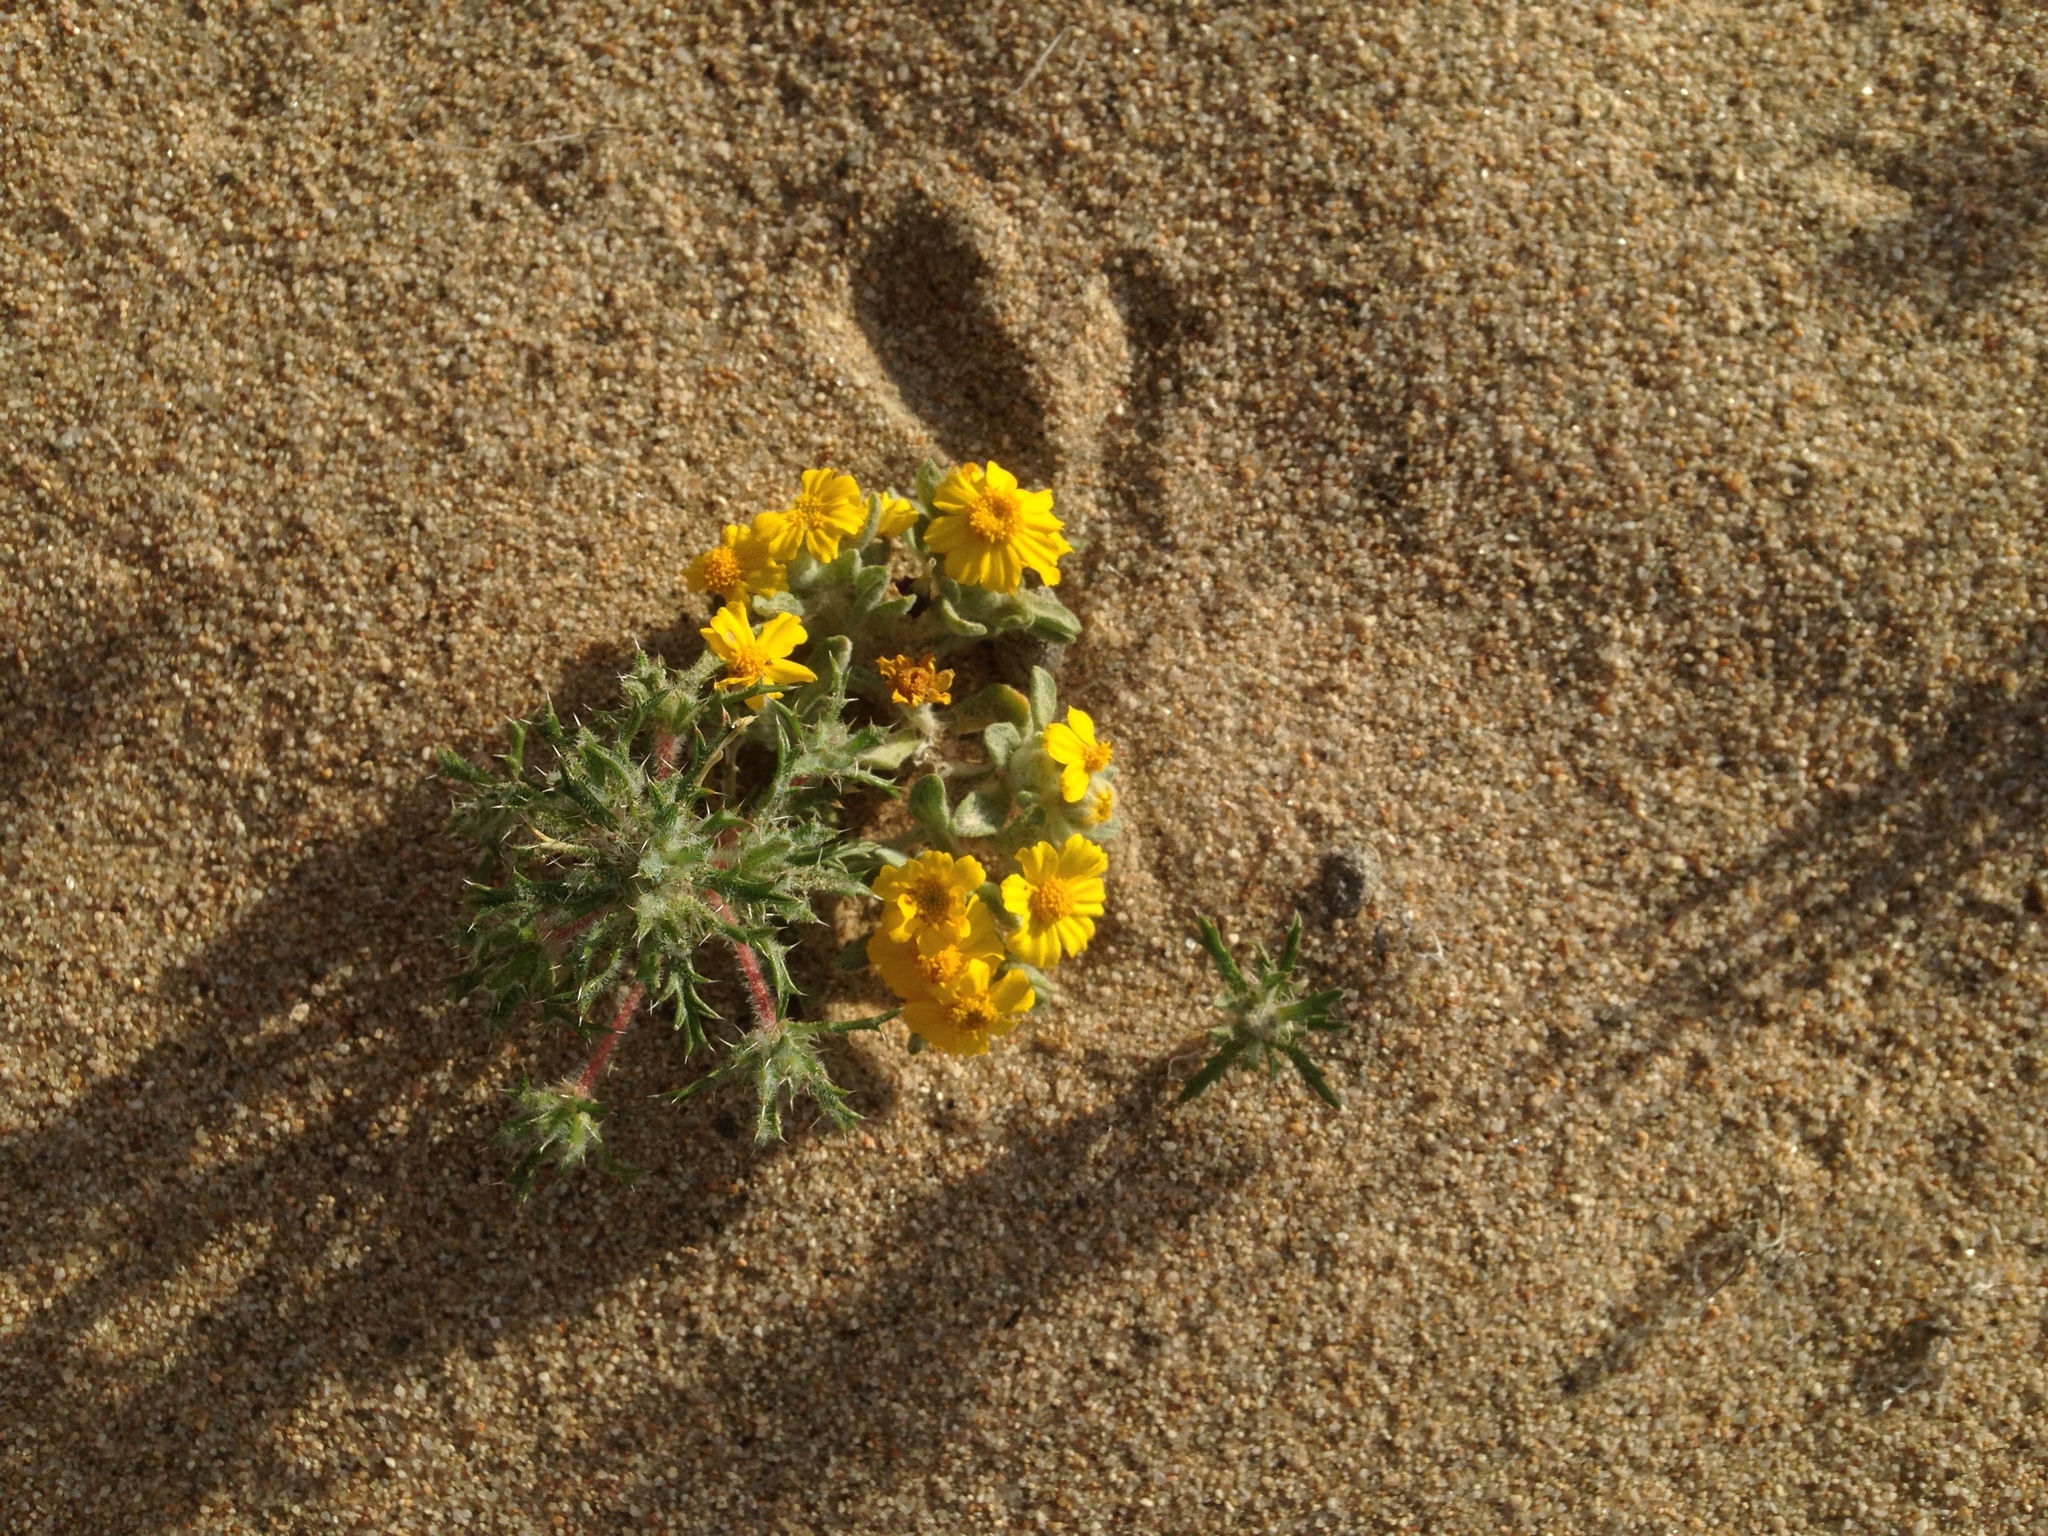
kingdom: Plantae
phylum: Tracheophyta
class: Magnoliopsida
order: Asterales
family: Asteraceae
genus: Eriophyllum
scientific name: Eriophyllum wallacei
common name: Wallace's woolly daisy
